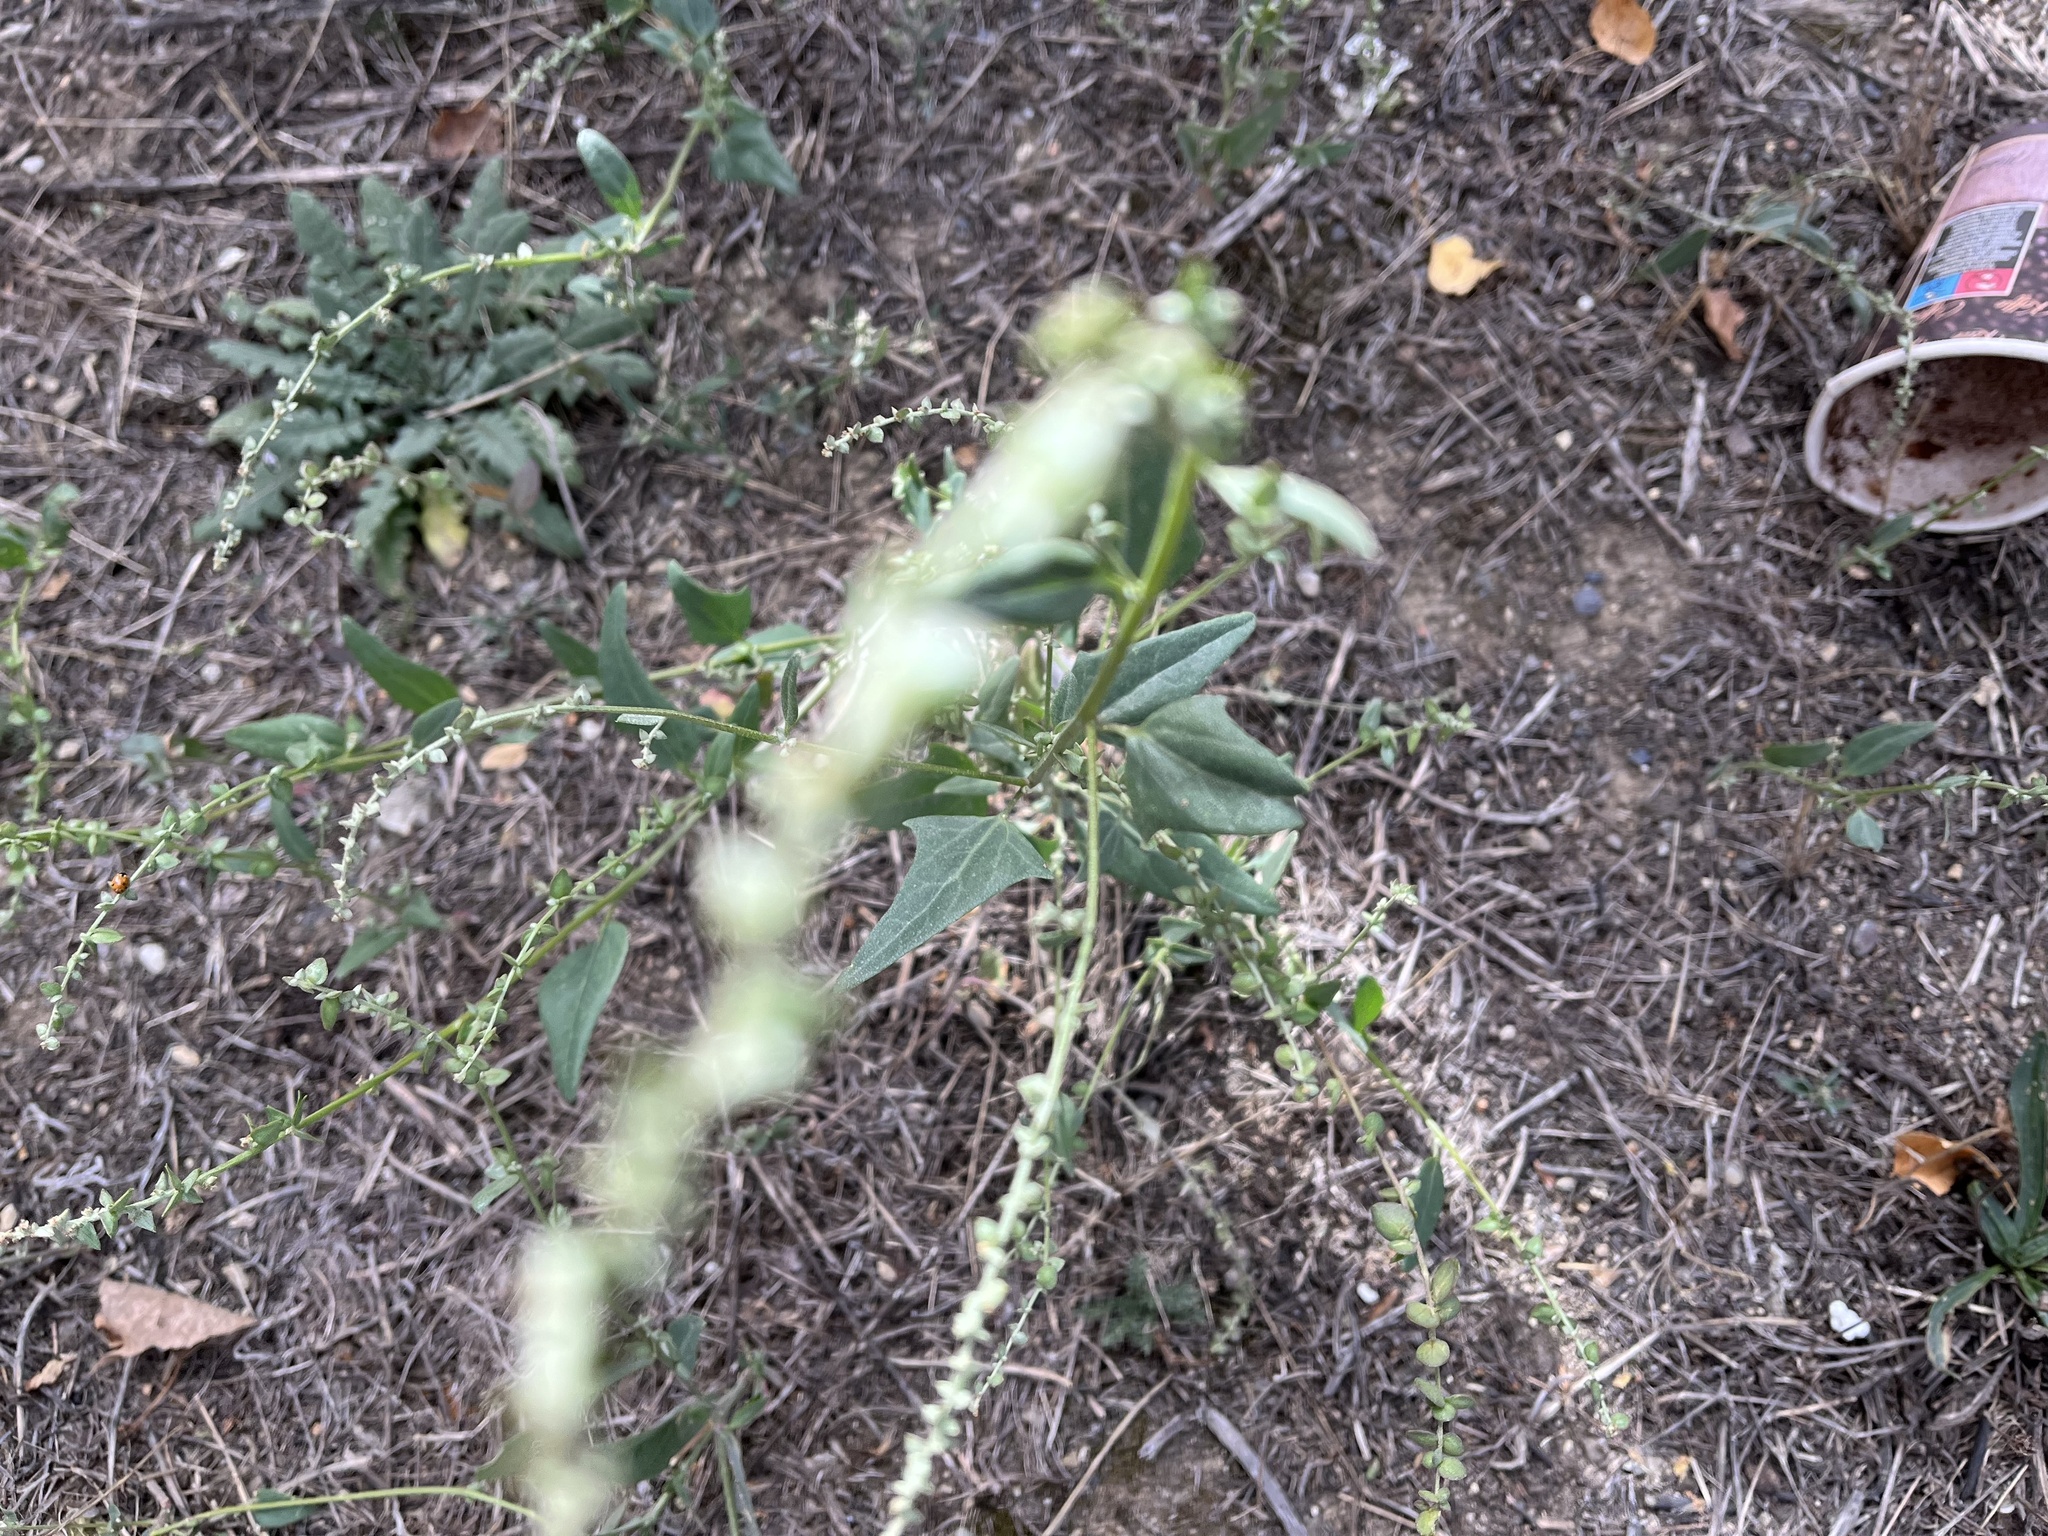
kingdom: Plantae
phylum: Tracheophyta
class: Magnoliopsida
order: Caryophyllales
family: Amaranthaceae
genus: Atriplex
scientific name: Atriplex micrantha
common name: Twoscale saltbush
